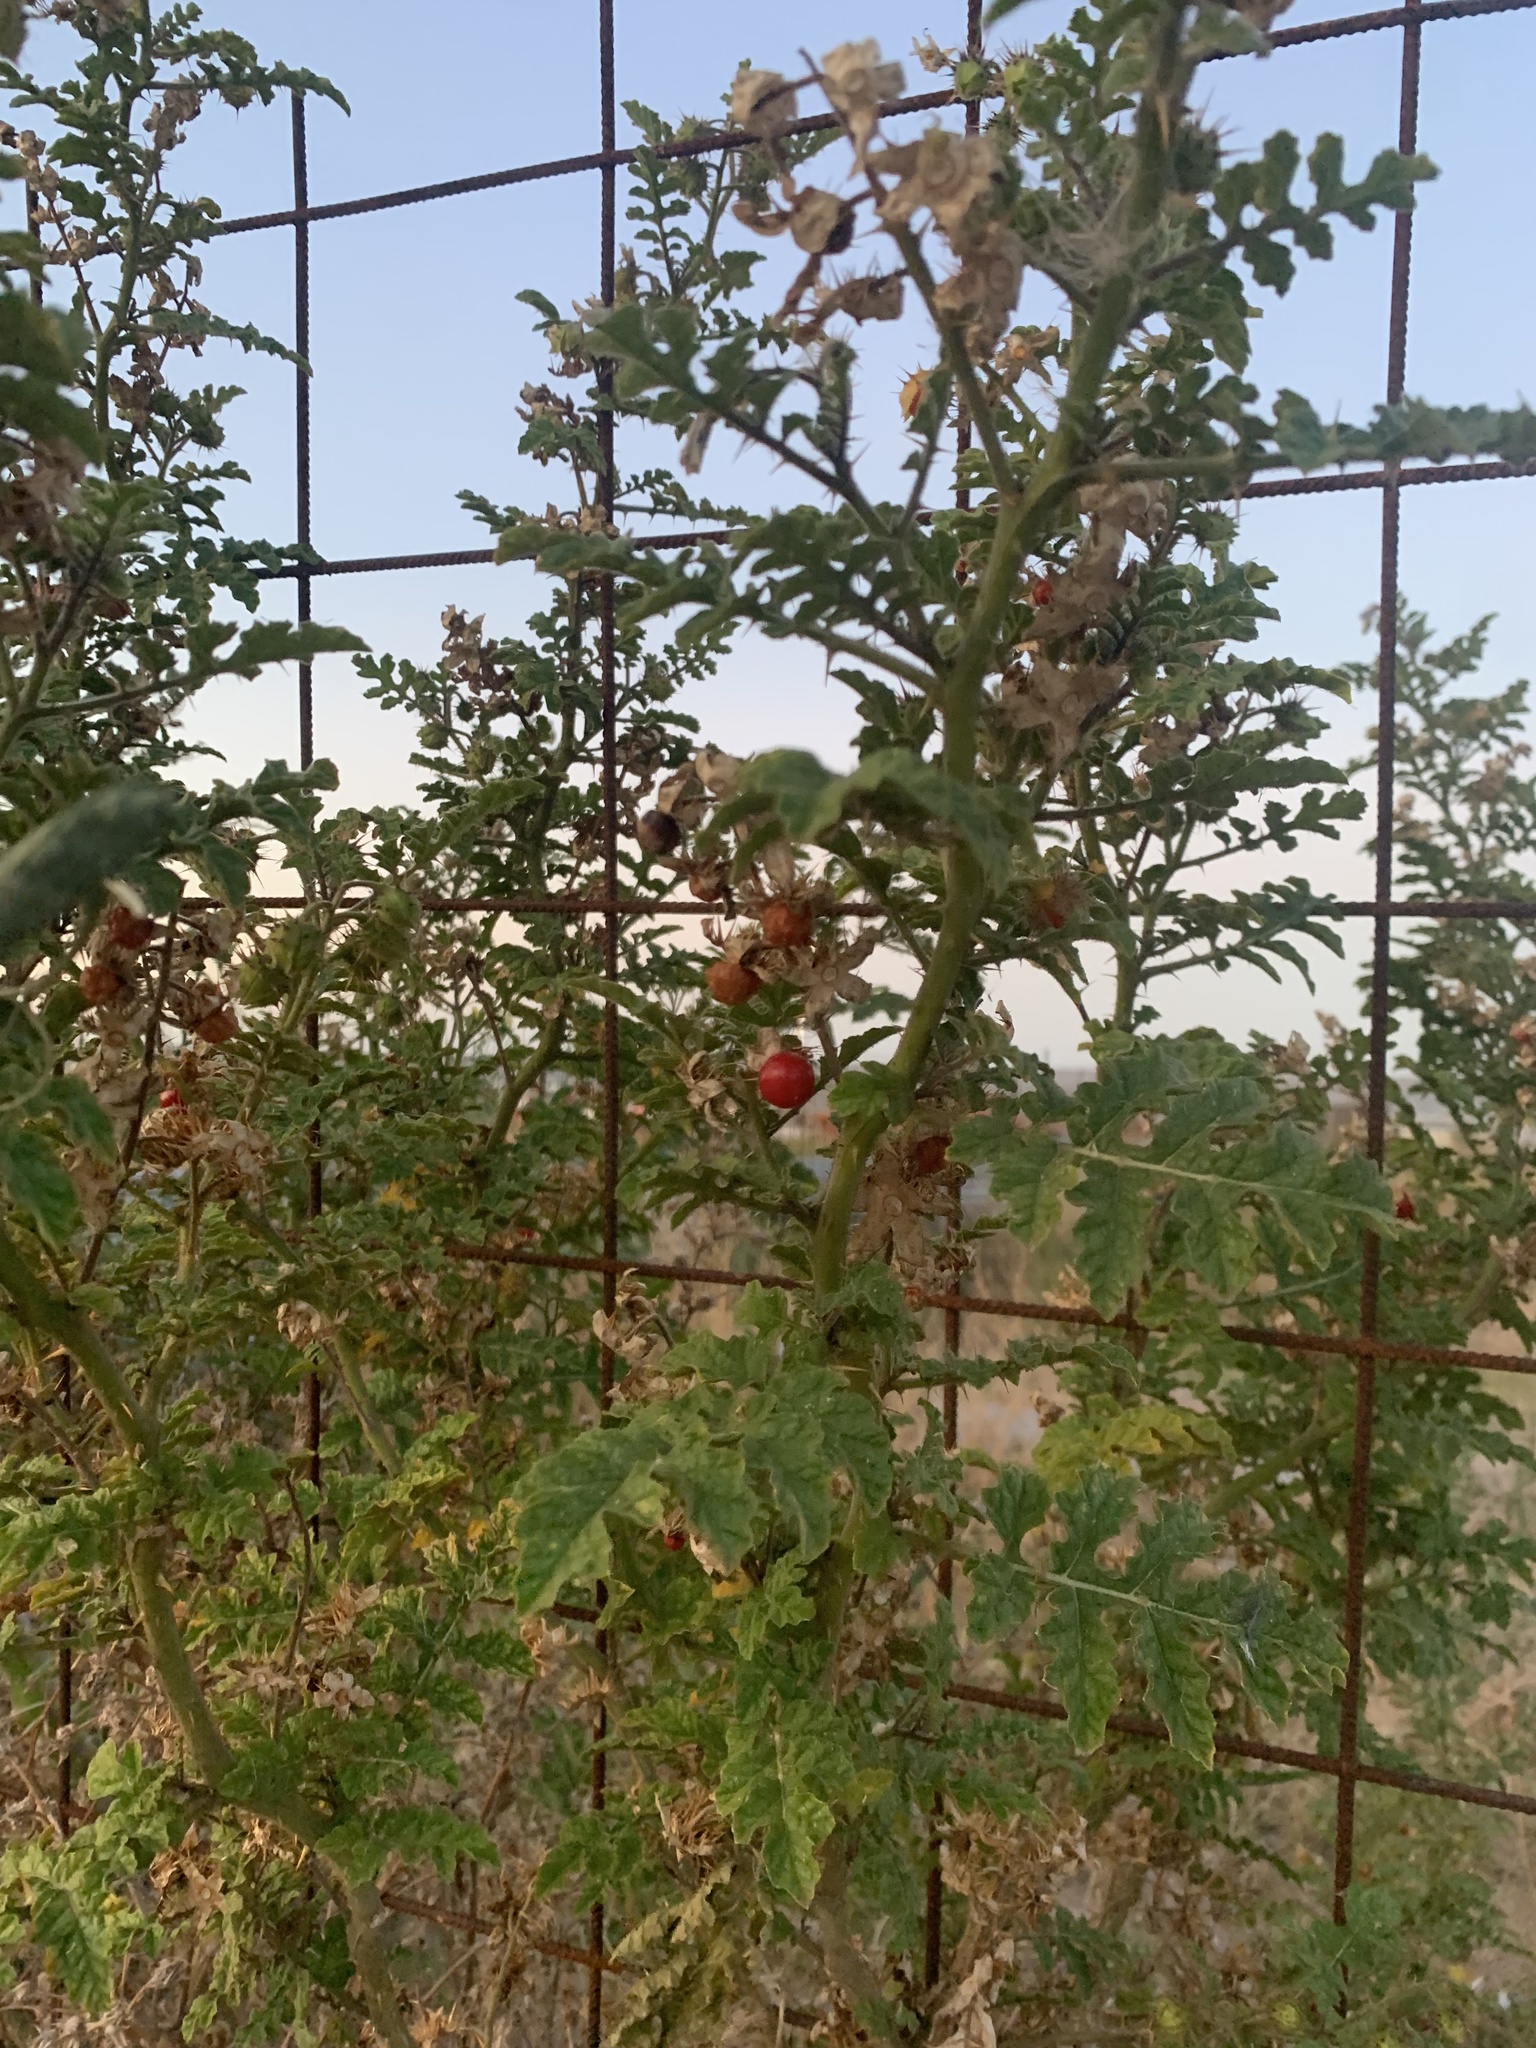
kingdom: Plantae
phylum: Tracheophyta
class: Magnoliopsida
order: Solanales
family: Solanaceae
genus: Solanum
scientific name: Solanum sisymbriifolium
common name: Red buffalo-bur
